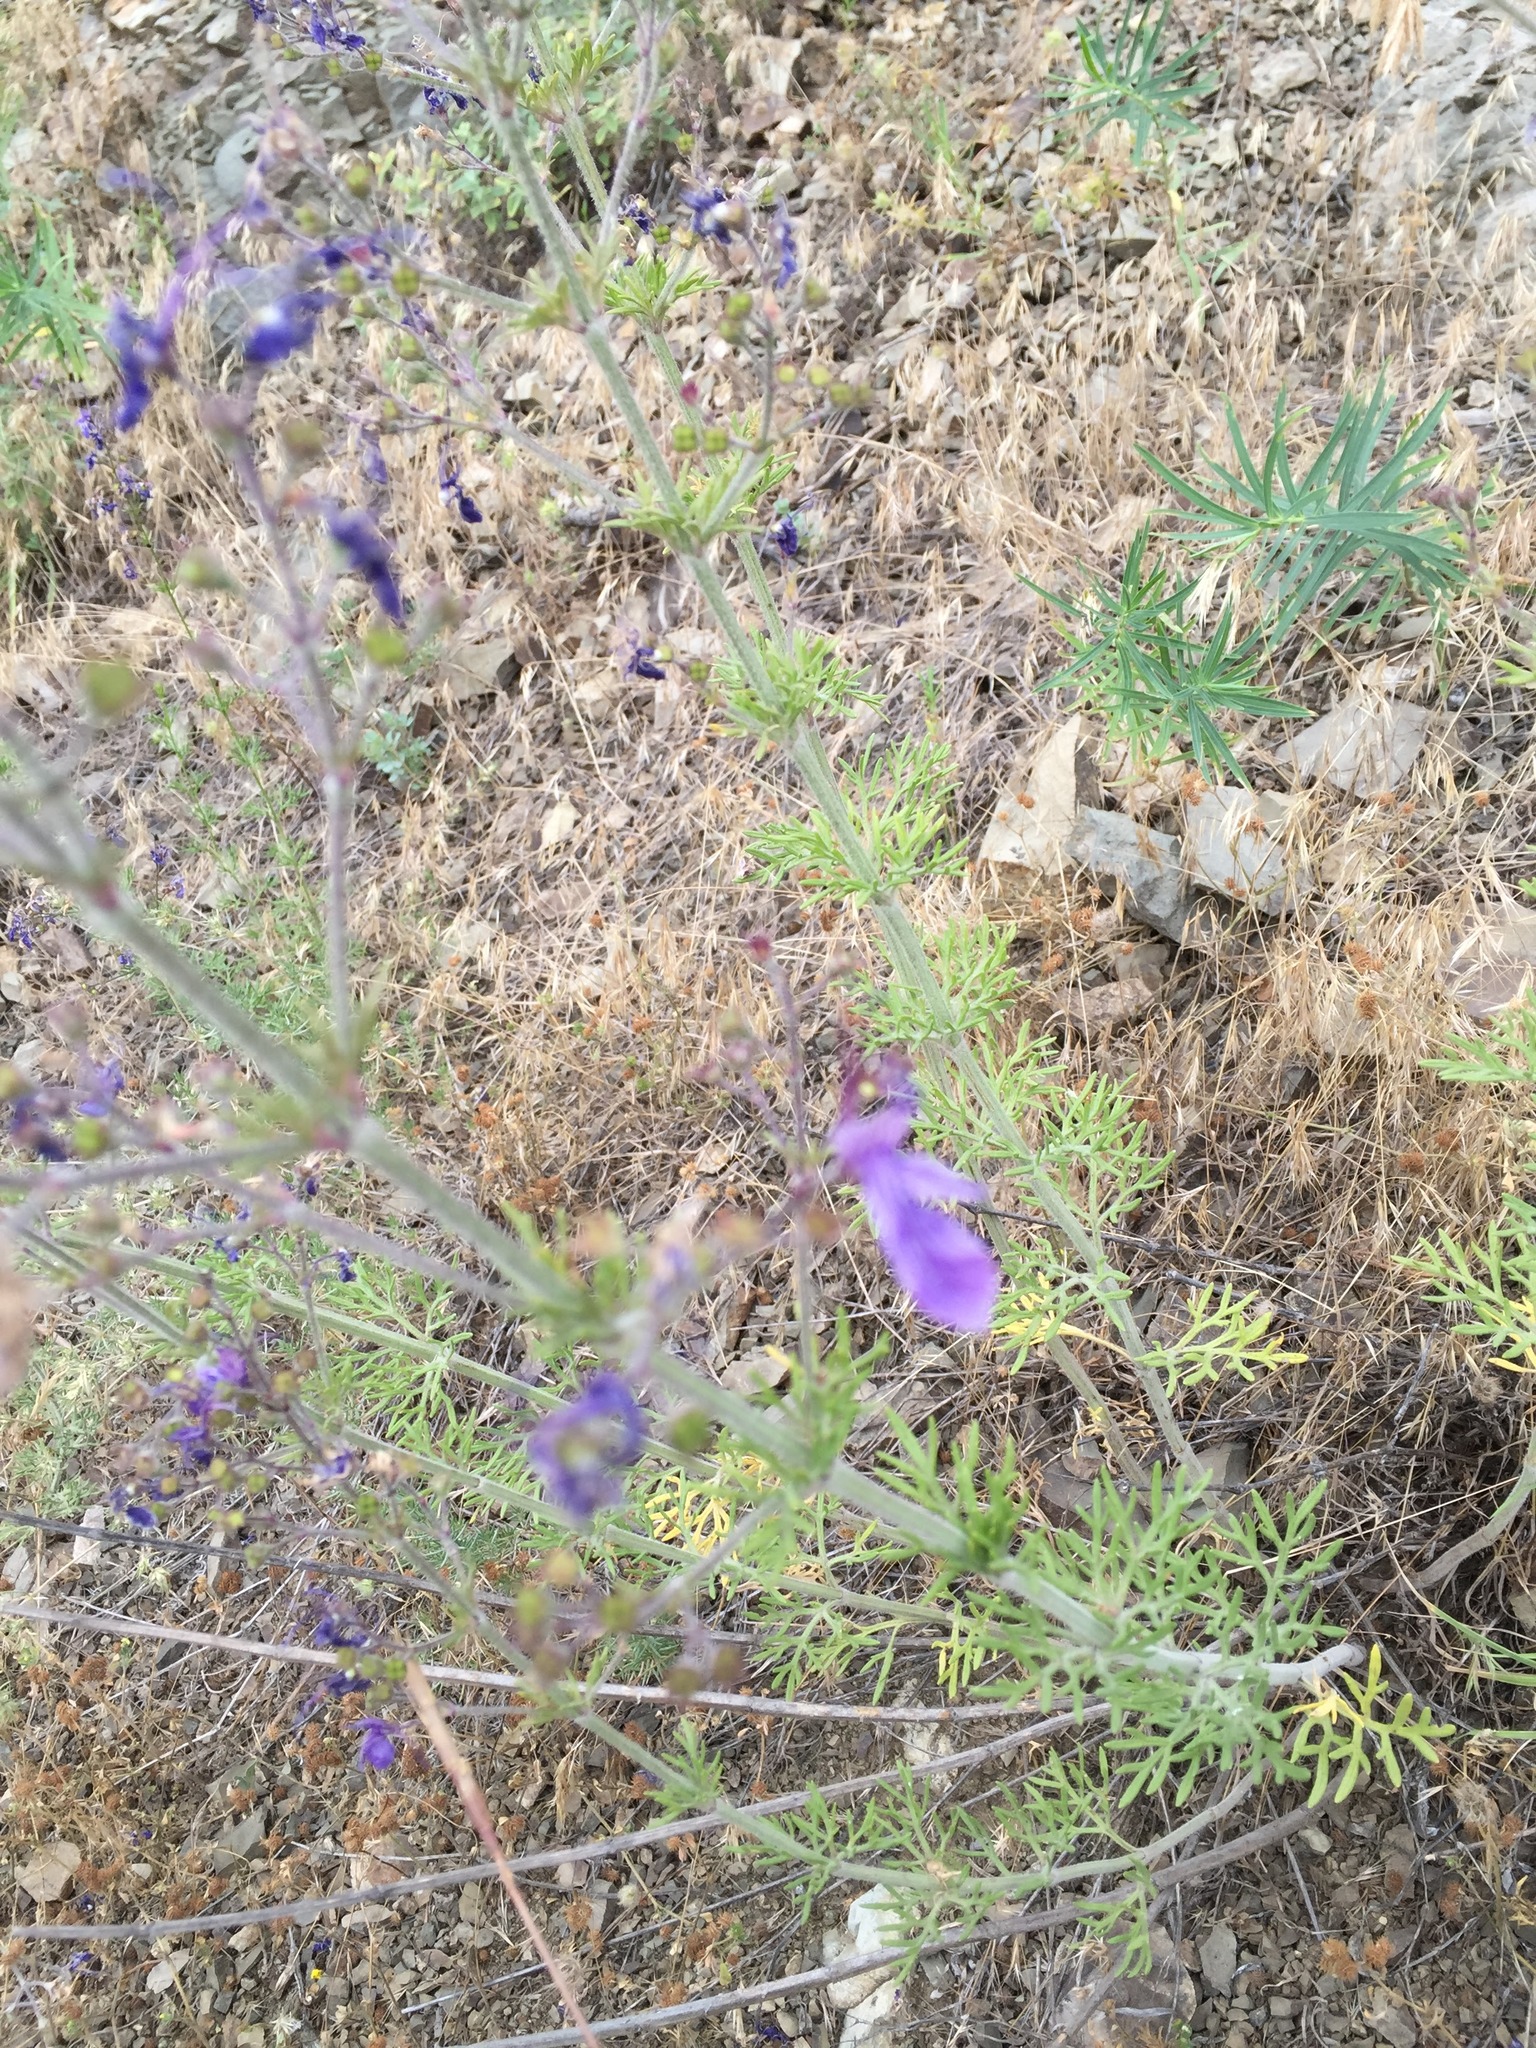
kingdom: Plantae
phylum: Tracheophyta
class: Magnoliopsida
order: Lamiales
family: Lamiaceae
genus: Teucrium
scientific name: Teucrium orientale
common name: Oriental germander
